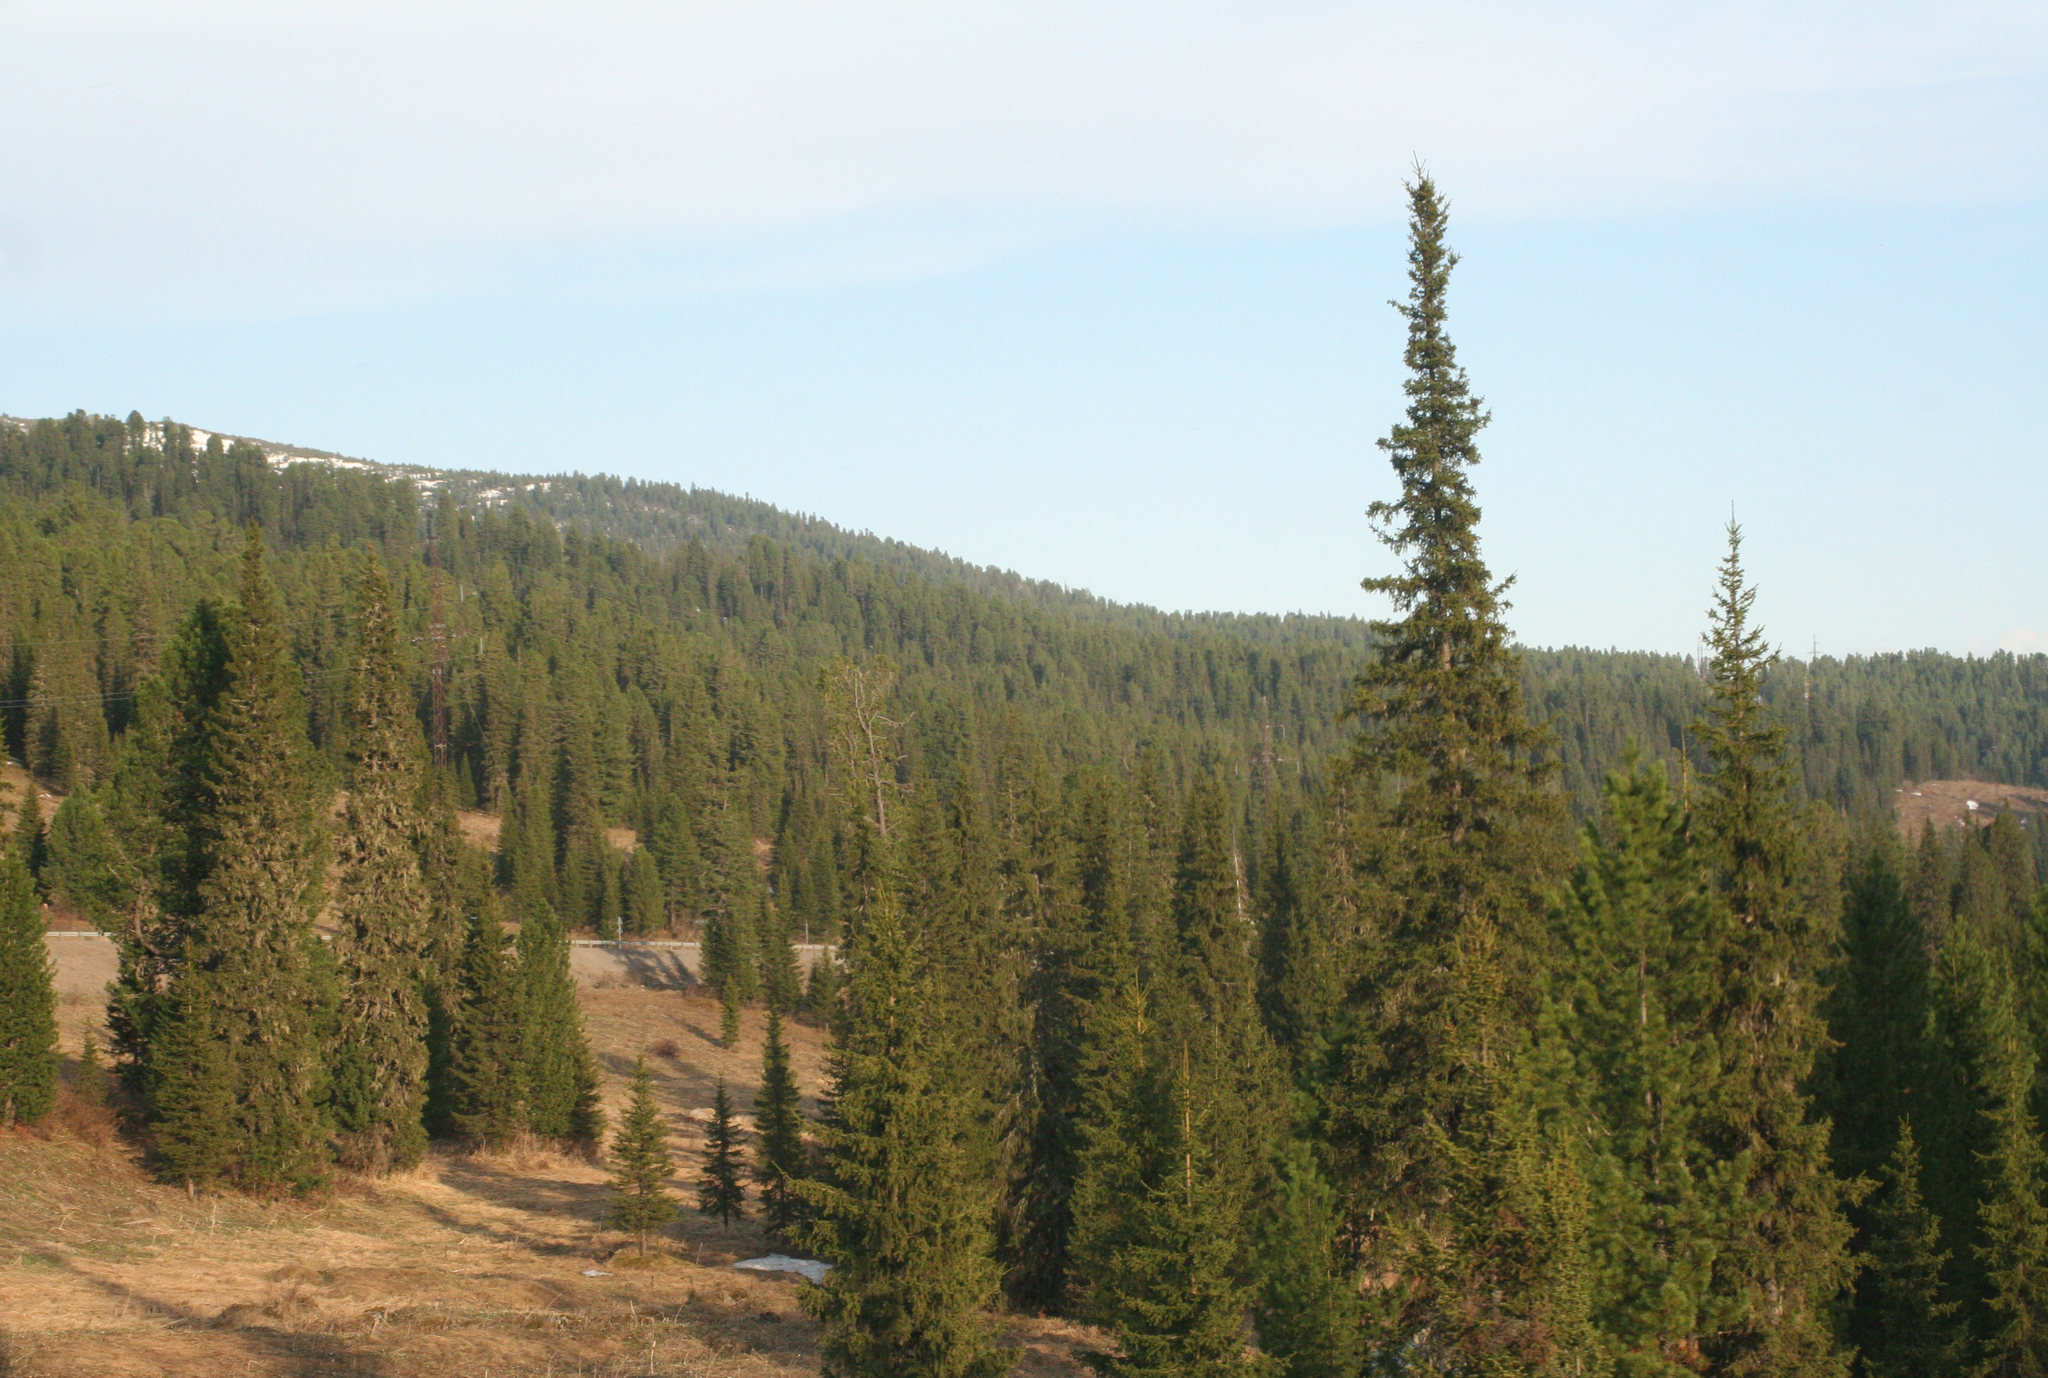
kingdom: Plantae
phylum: Tracheophyta
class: Pinopsida
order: Pinales
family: Pinaceae
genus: Abies
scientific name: Abies sibirica
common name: Siberian fir
